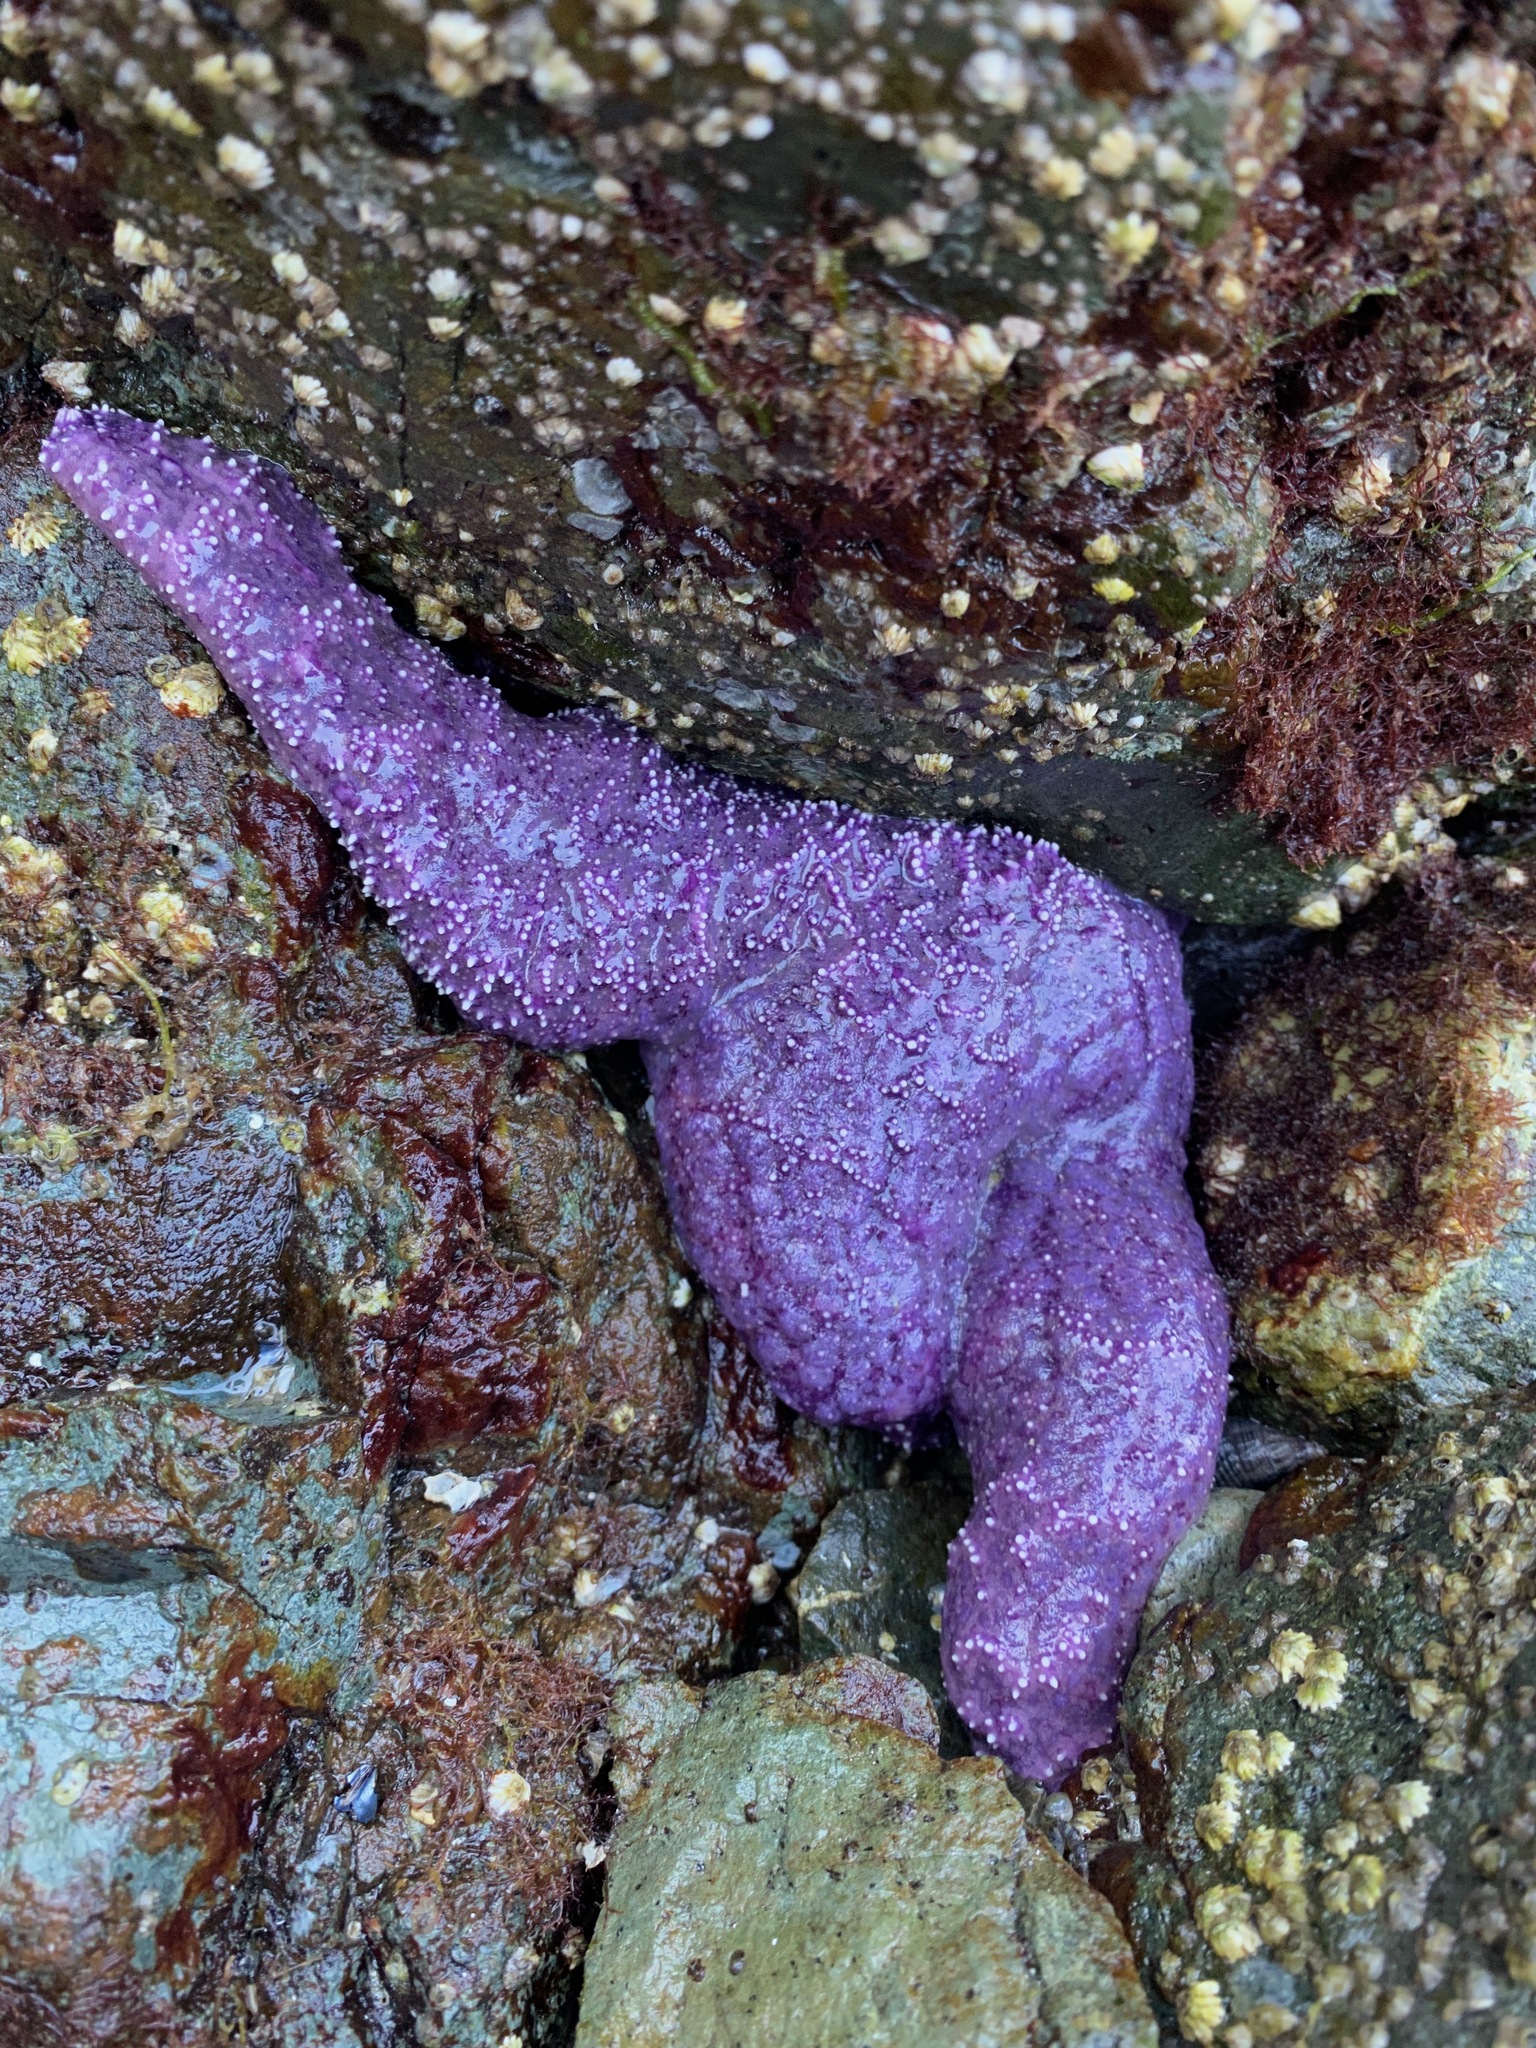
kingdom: Animalia
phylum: Echinodermata
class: Asteroidea
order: Forcipulatida
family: Asteriidae
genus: Pisaster
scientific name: Pisaster ochraceus
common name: Ochre stars
